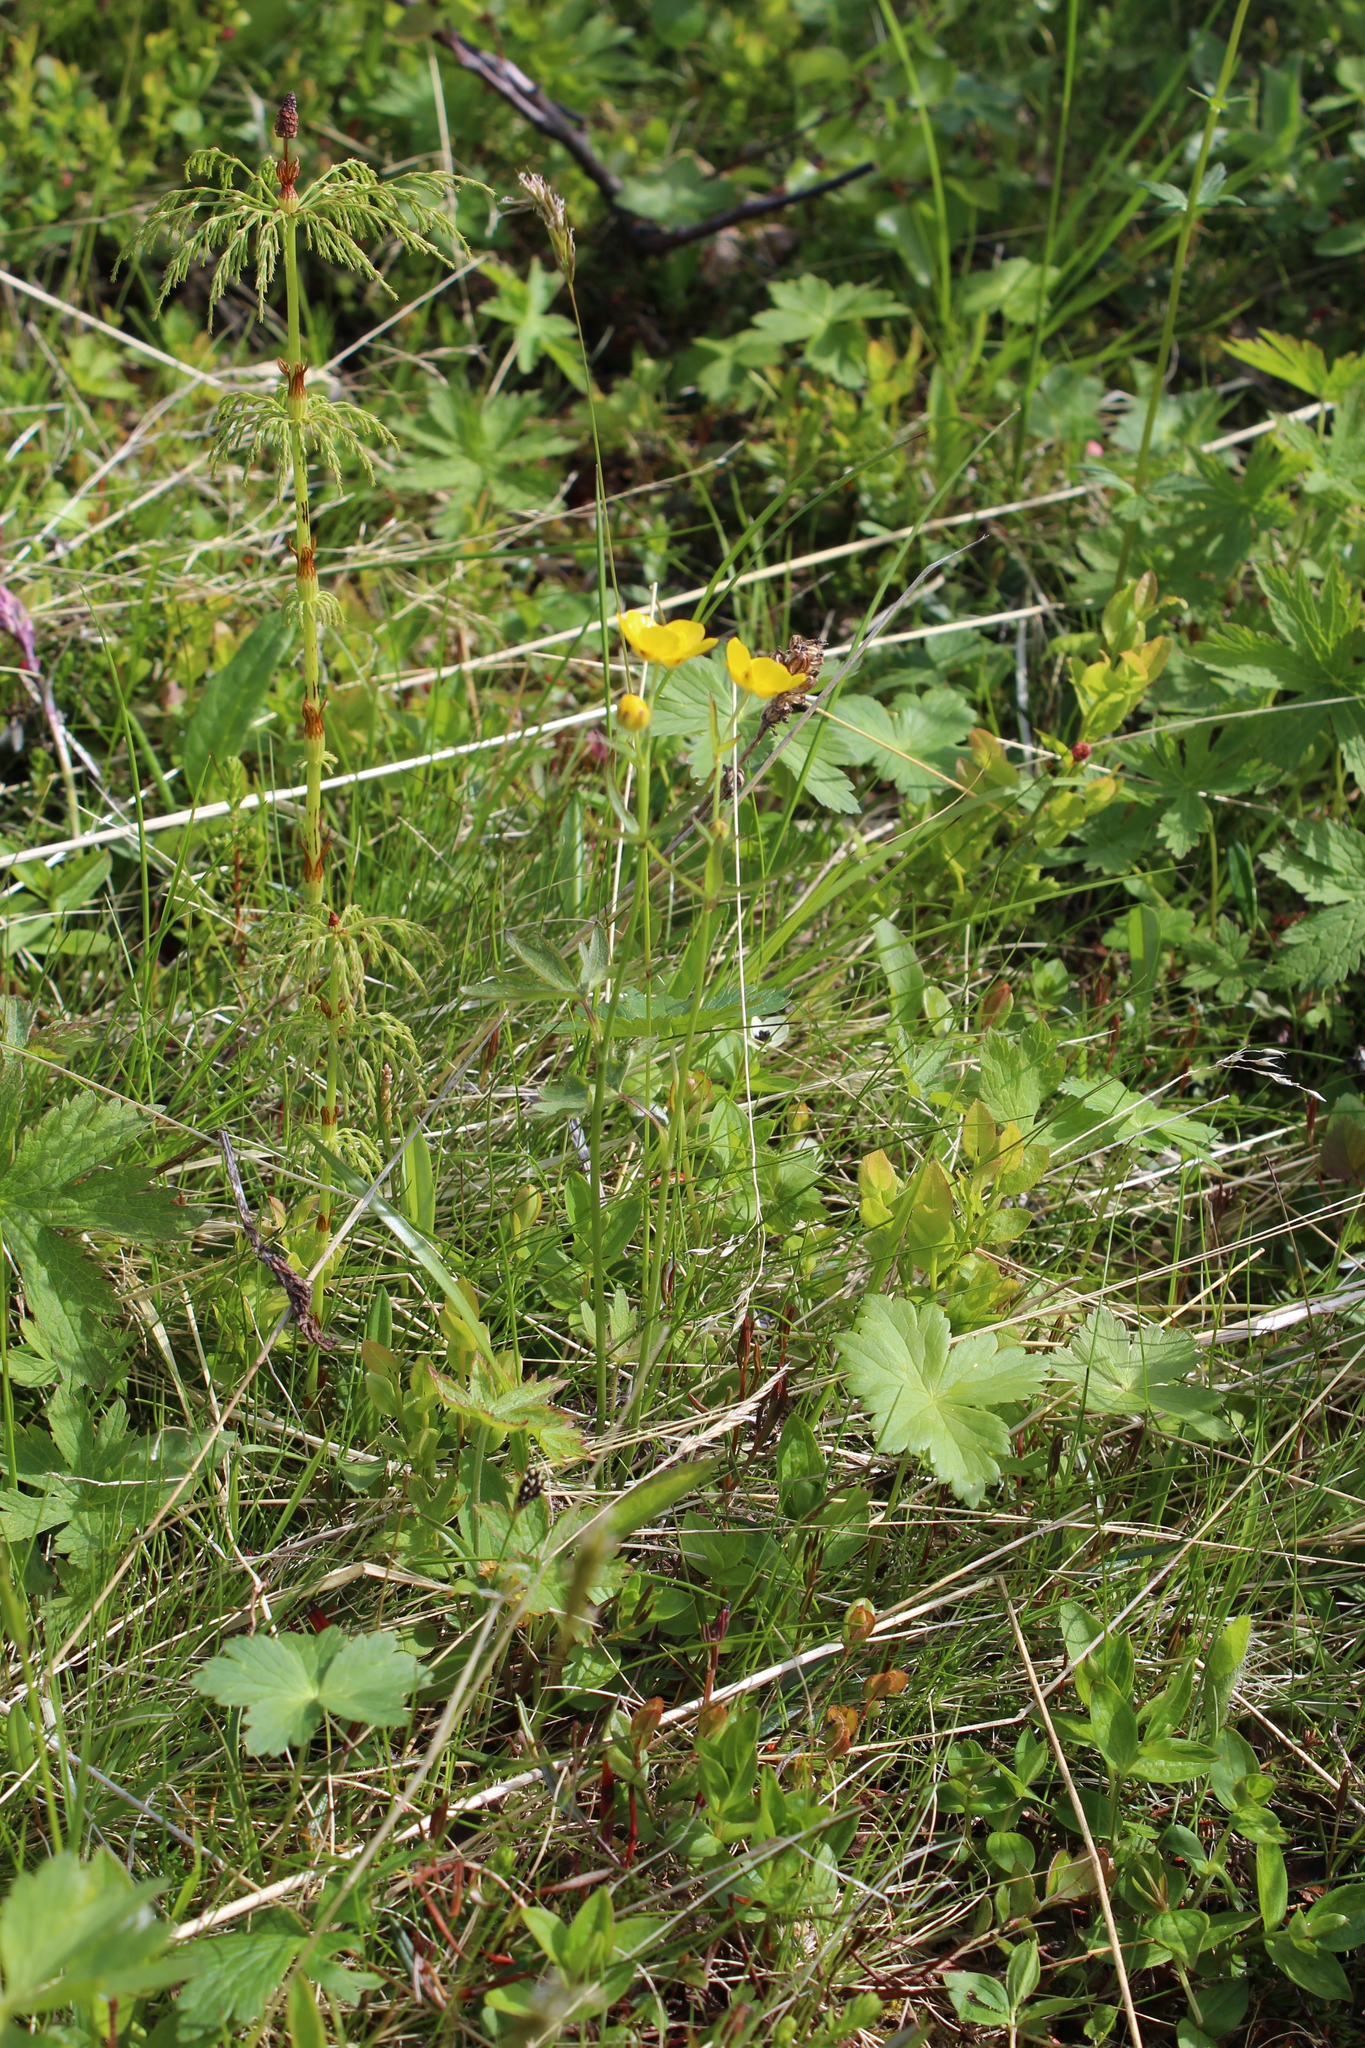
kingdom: Plantae
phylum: Tracheophyta
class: Magnoliopsida
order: Ranunculales
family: Ranunculaceae
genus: Ranunculus
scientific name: Ranunculus propinquus
